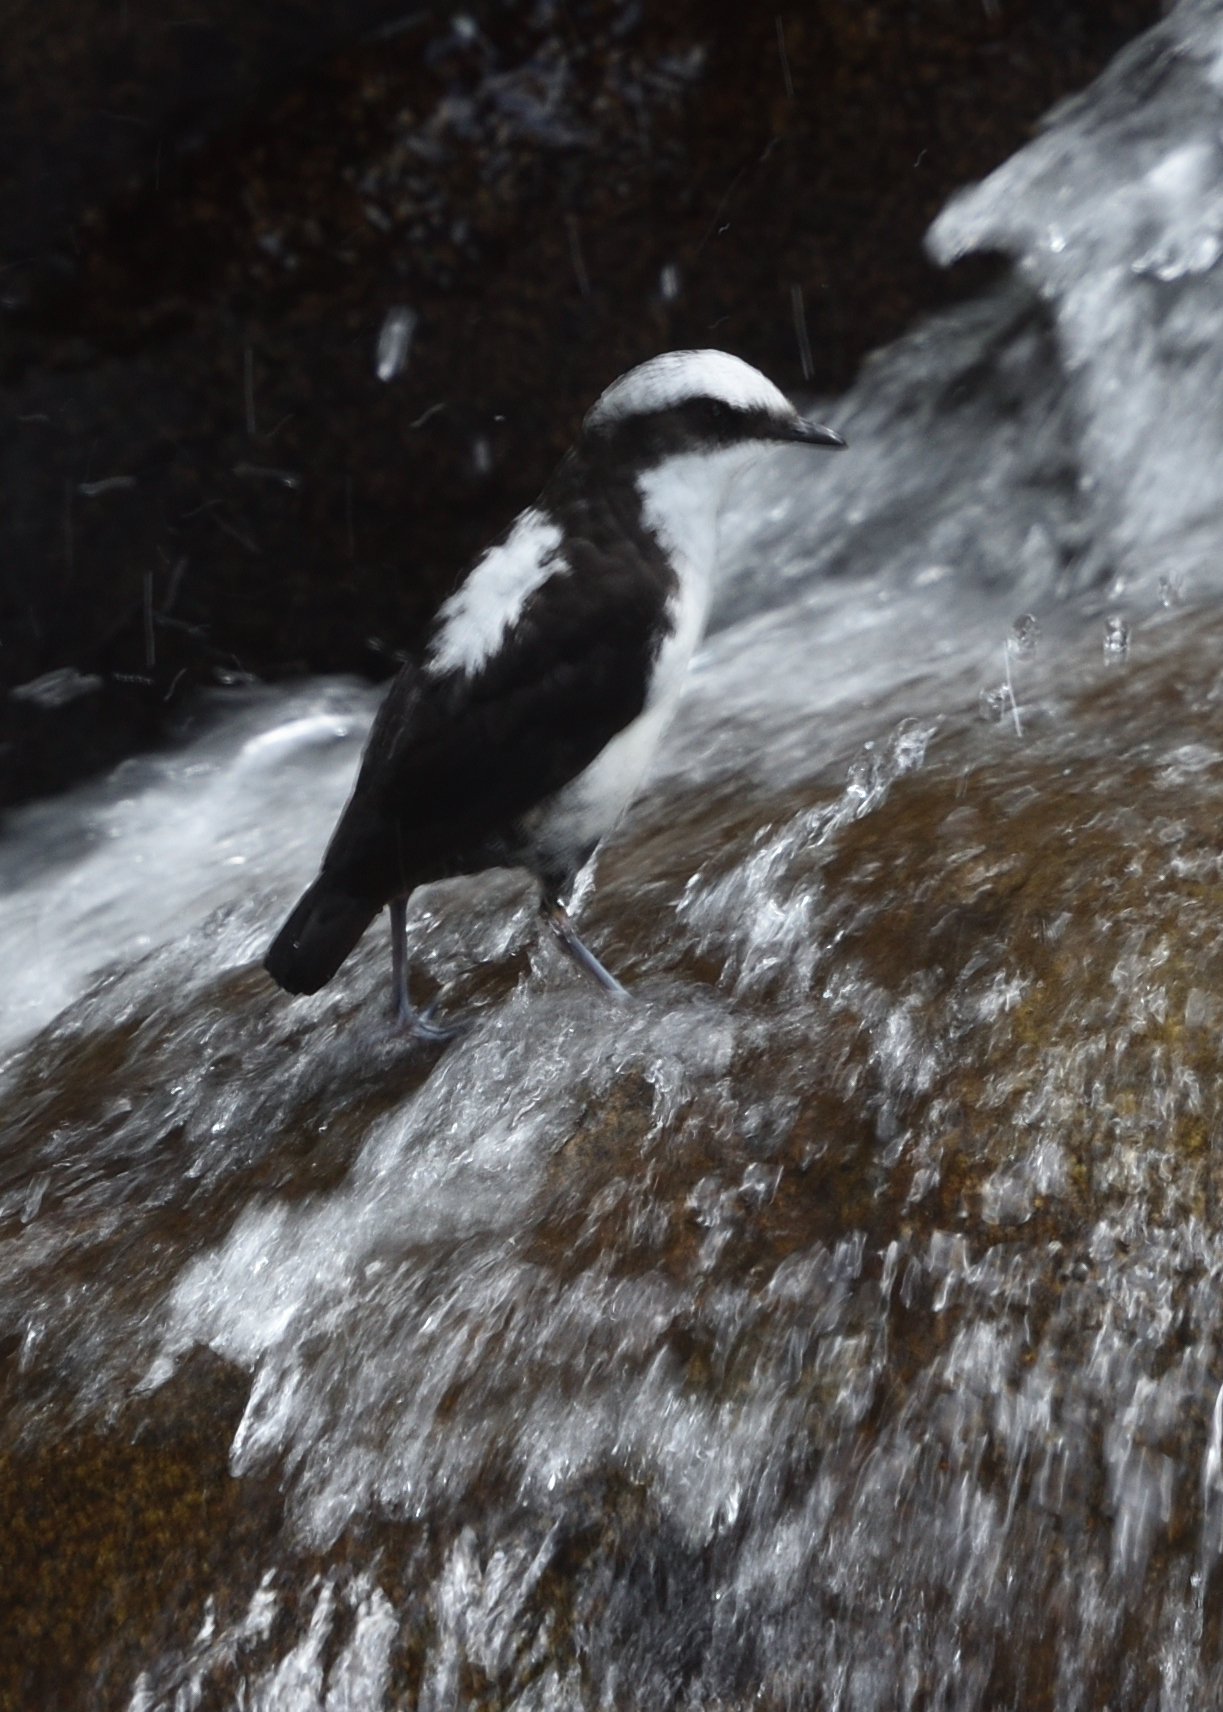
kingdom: Animalia
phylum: Chordata
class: Aves
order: Passeriformes
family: Cinclidae
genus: Cinclus
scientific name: Cinclus leucocephalus
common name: White-capped dipper
